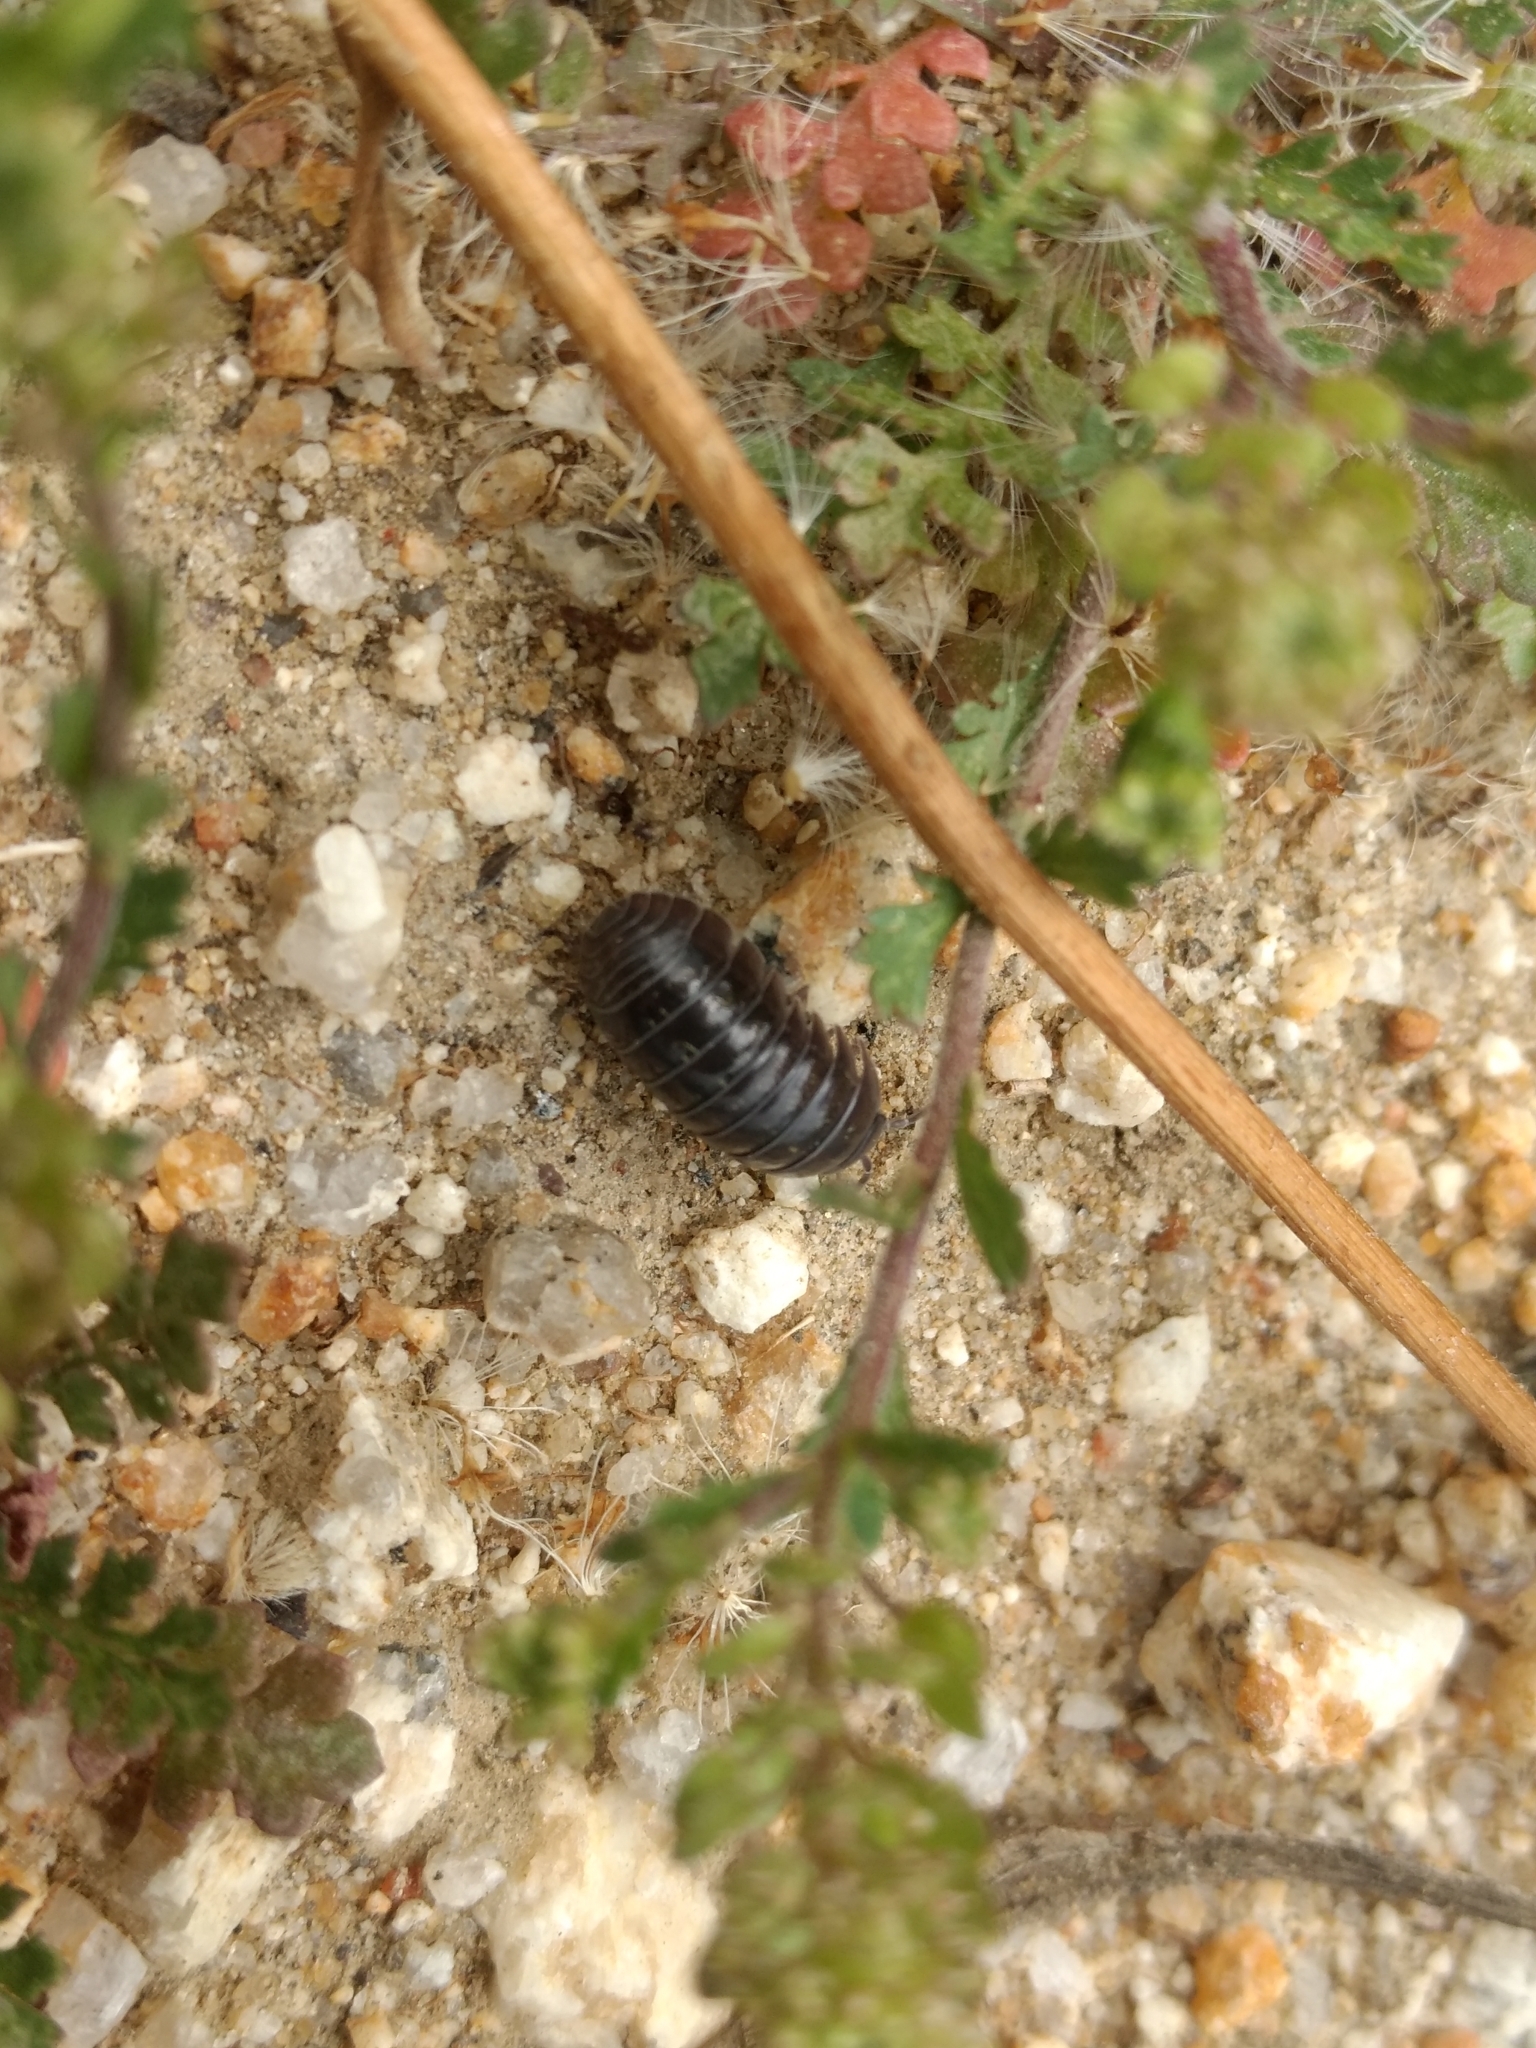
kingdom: Animalia
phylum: Arthropoda
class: Malacostraca
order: Isopoda
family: Armadillidiidae
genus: Armadillidium
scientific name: Armadillidium vulgare
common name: Common pill woodlouse
